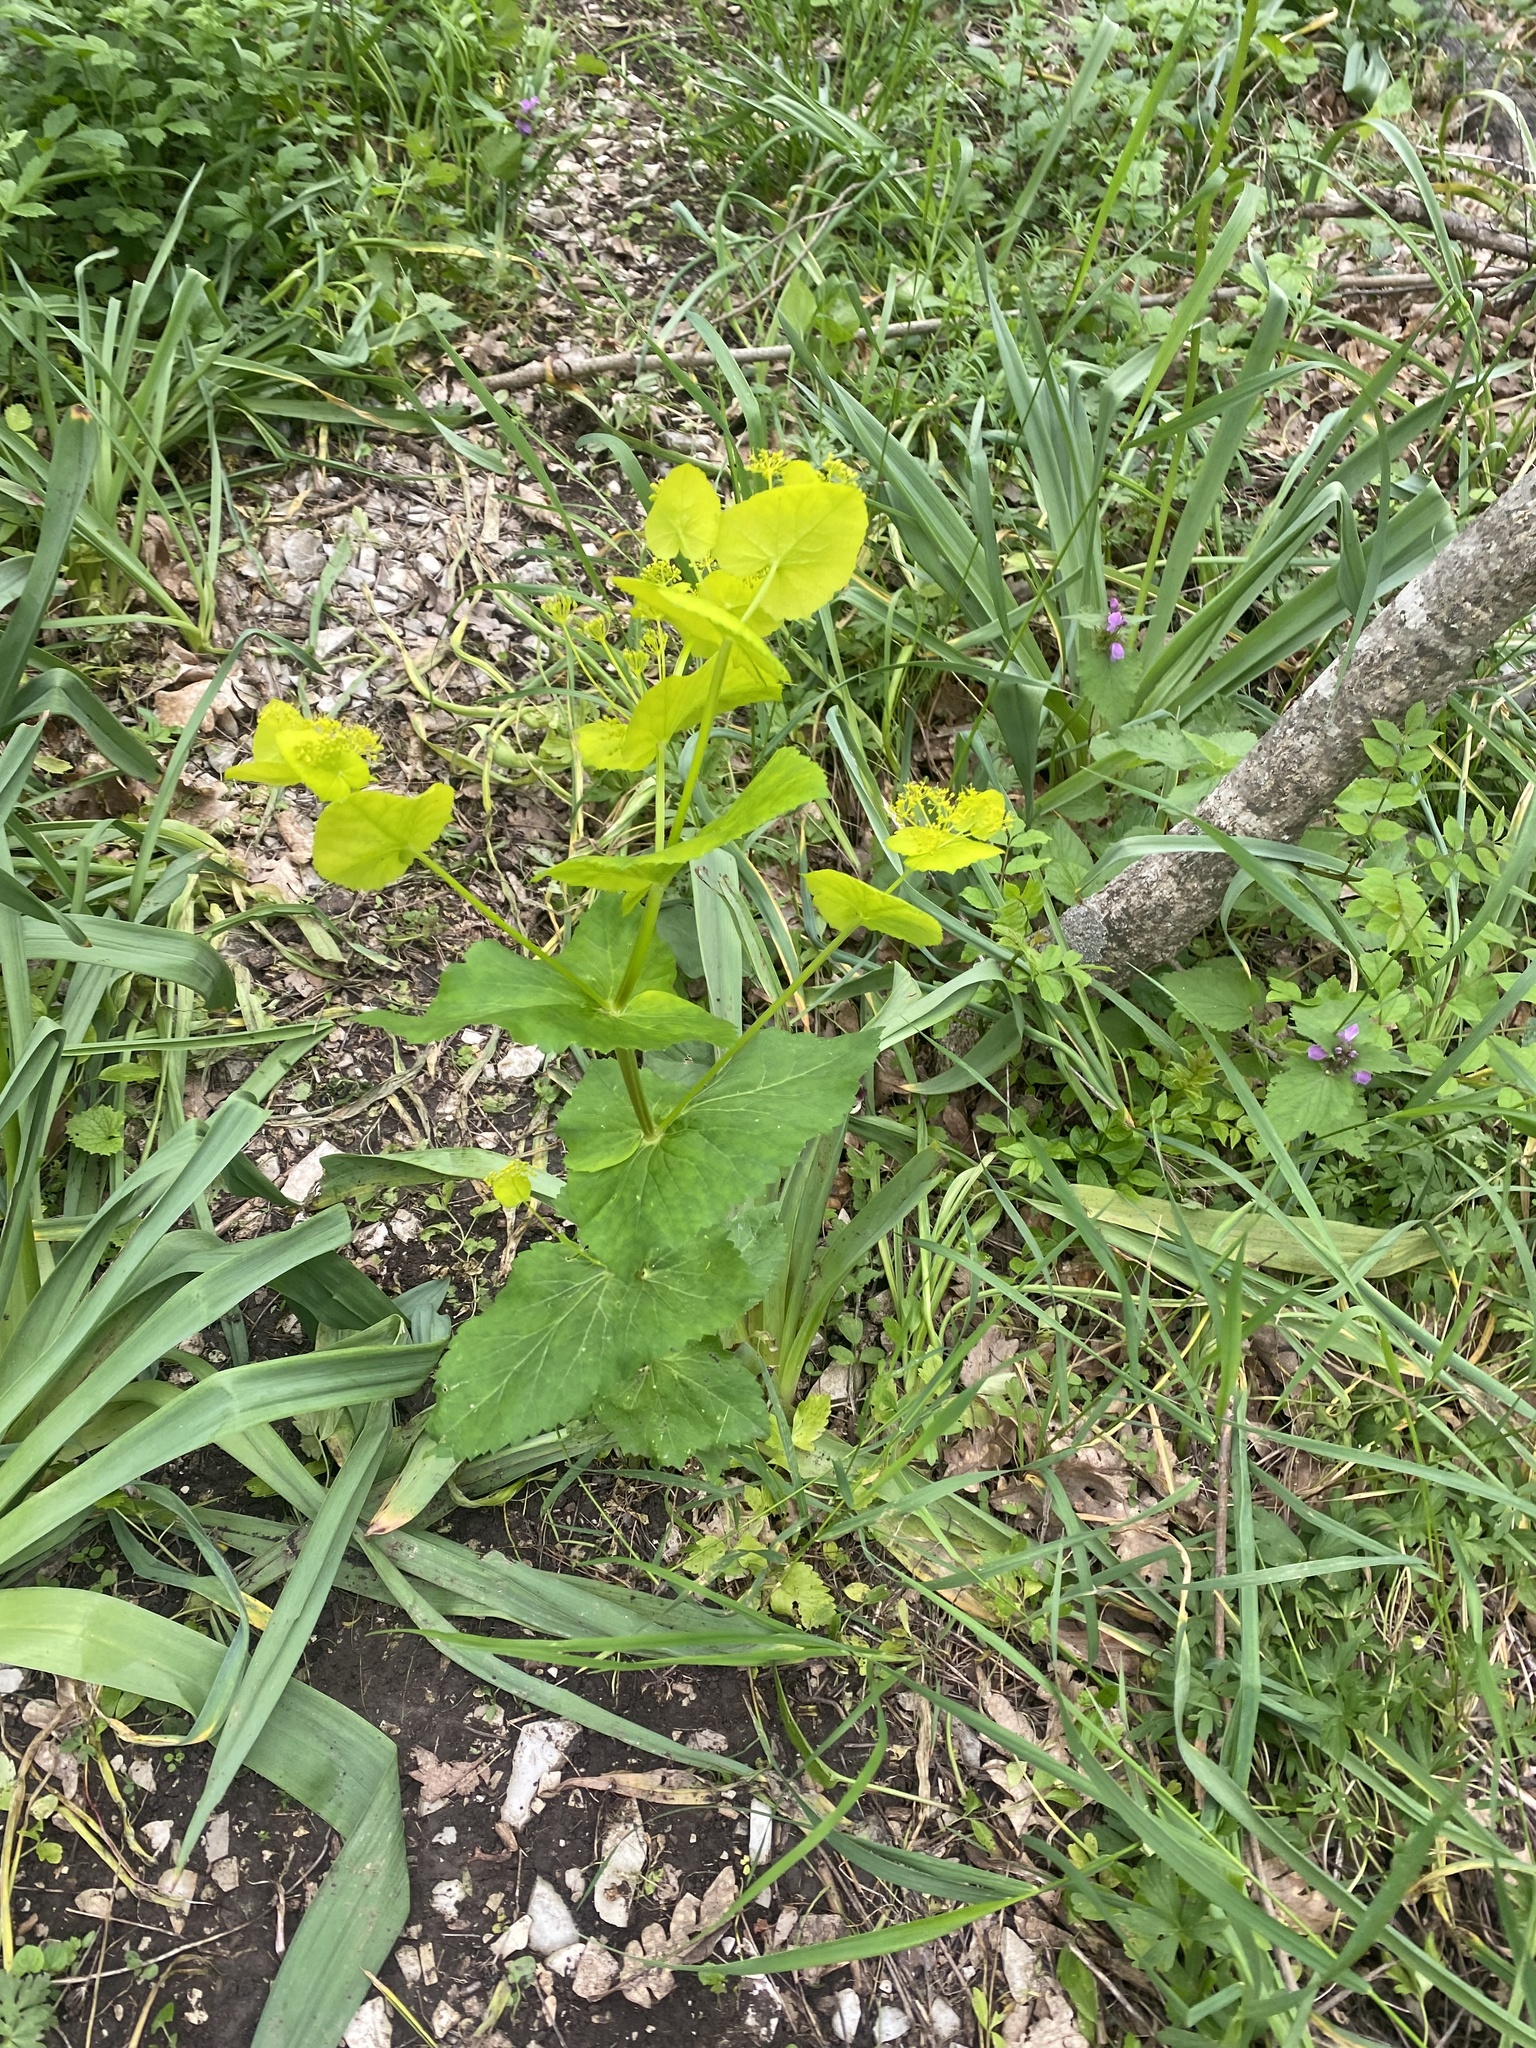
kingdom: Plantae
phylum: Tracheophyta
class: Magnoliopsida
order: Apiales
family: Apiaceae
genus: Smyrnium
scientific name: Smyrnium perfoliatum
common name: Perfoliate alexanders
